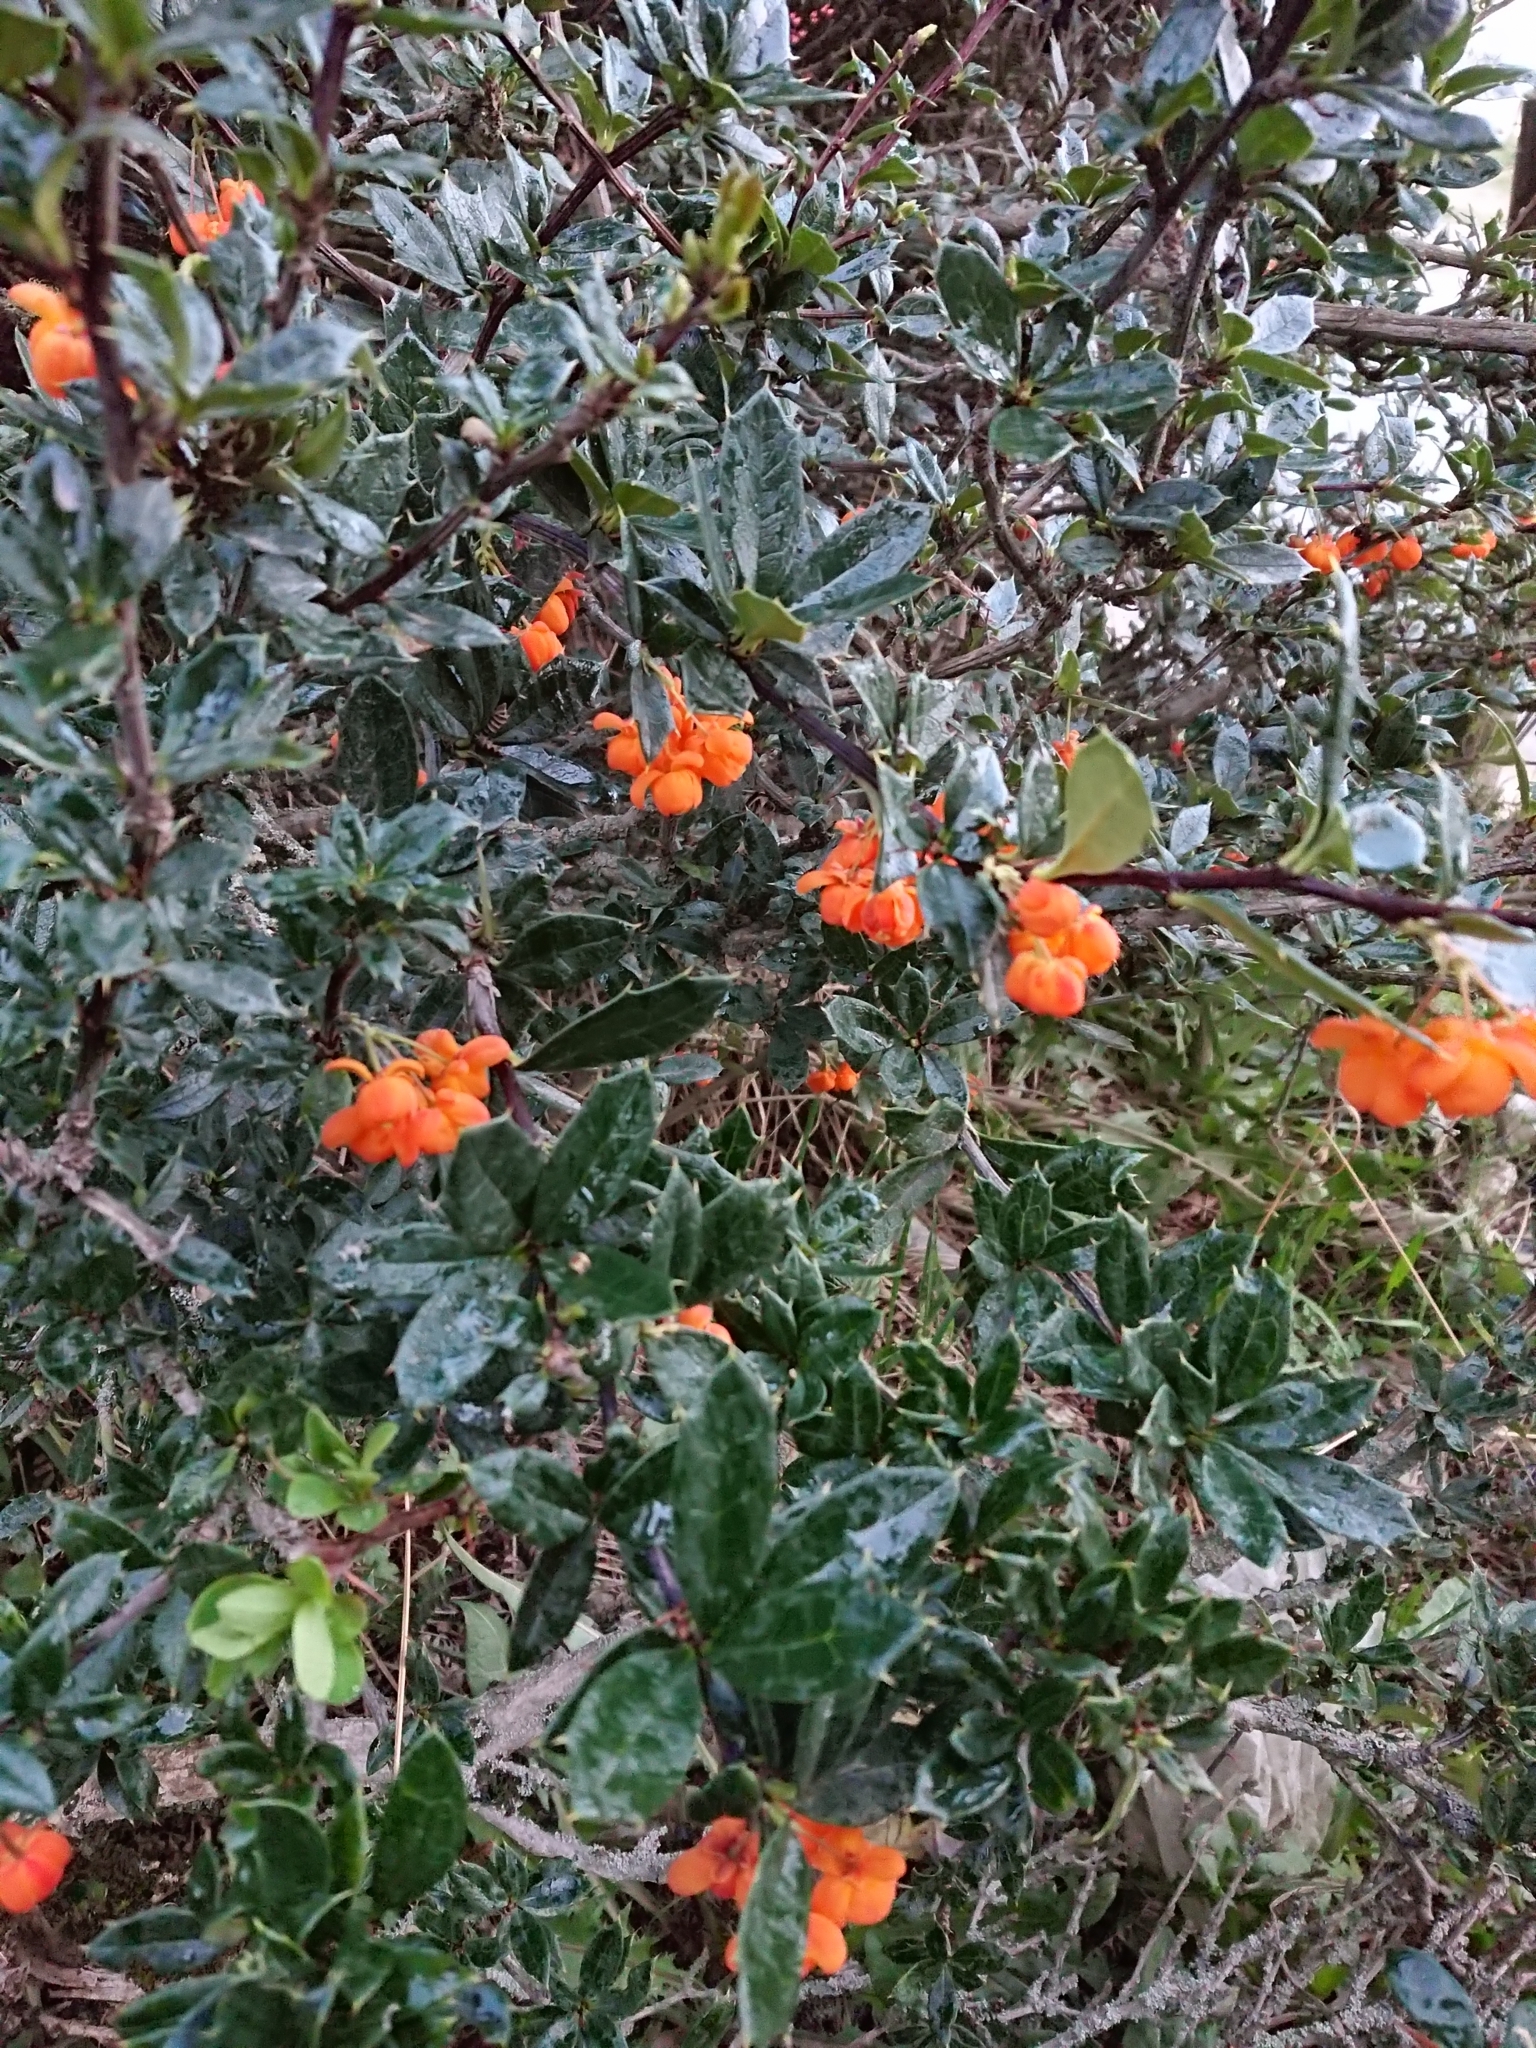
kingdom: Plantae
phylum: Tracheophyta
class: Magnoliopsida
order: Ranunculales
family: Berberidaceae
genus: Berberis
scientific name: Berberis ilicifolia
